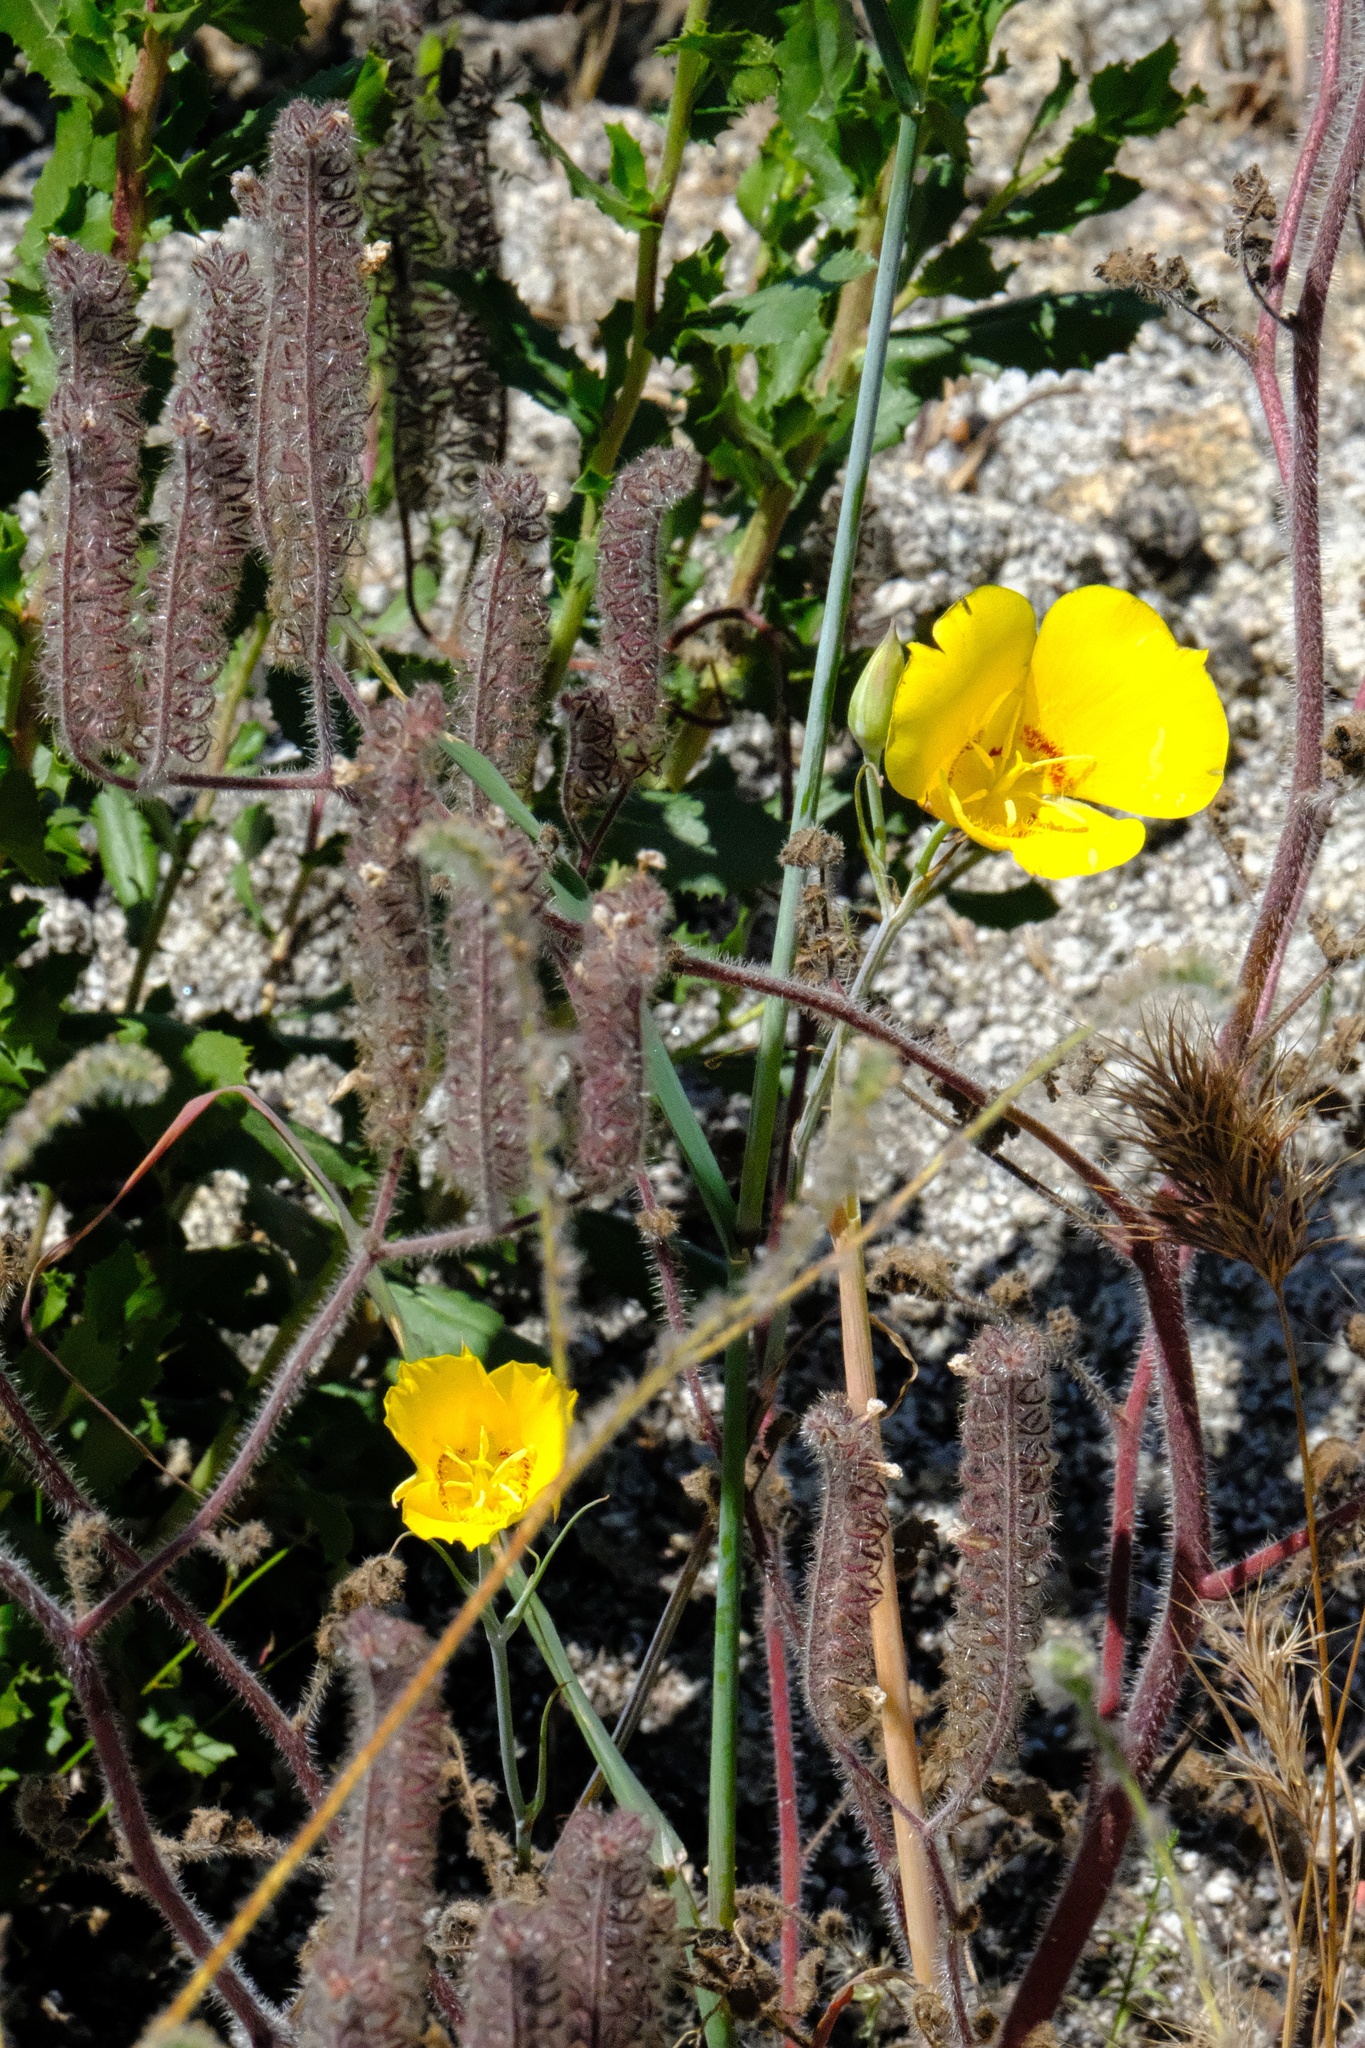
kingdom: Plantae
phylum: Tracheophyta
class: Liliopsida
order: Liliales
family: Liliaceae
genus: Calochortus
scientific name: Calochortus concolor
